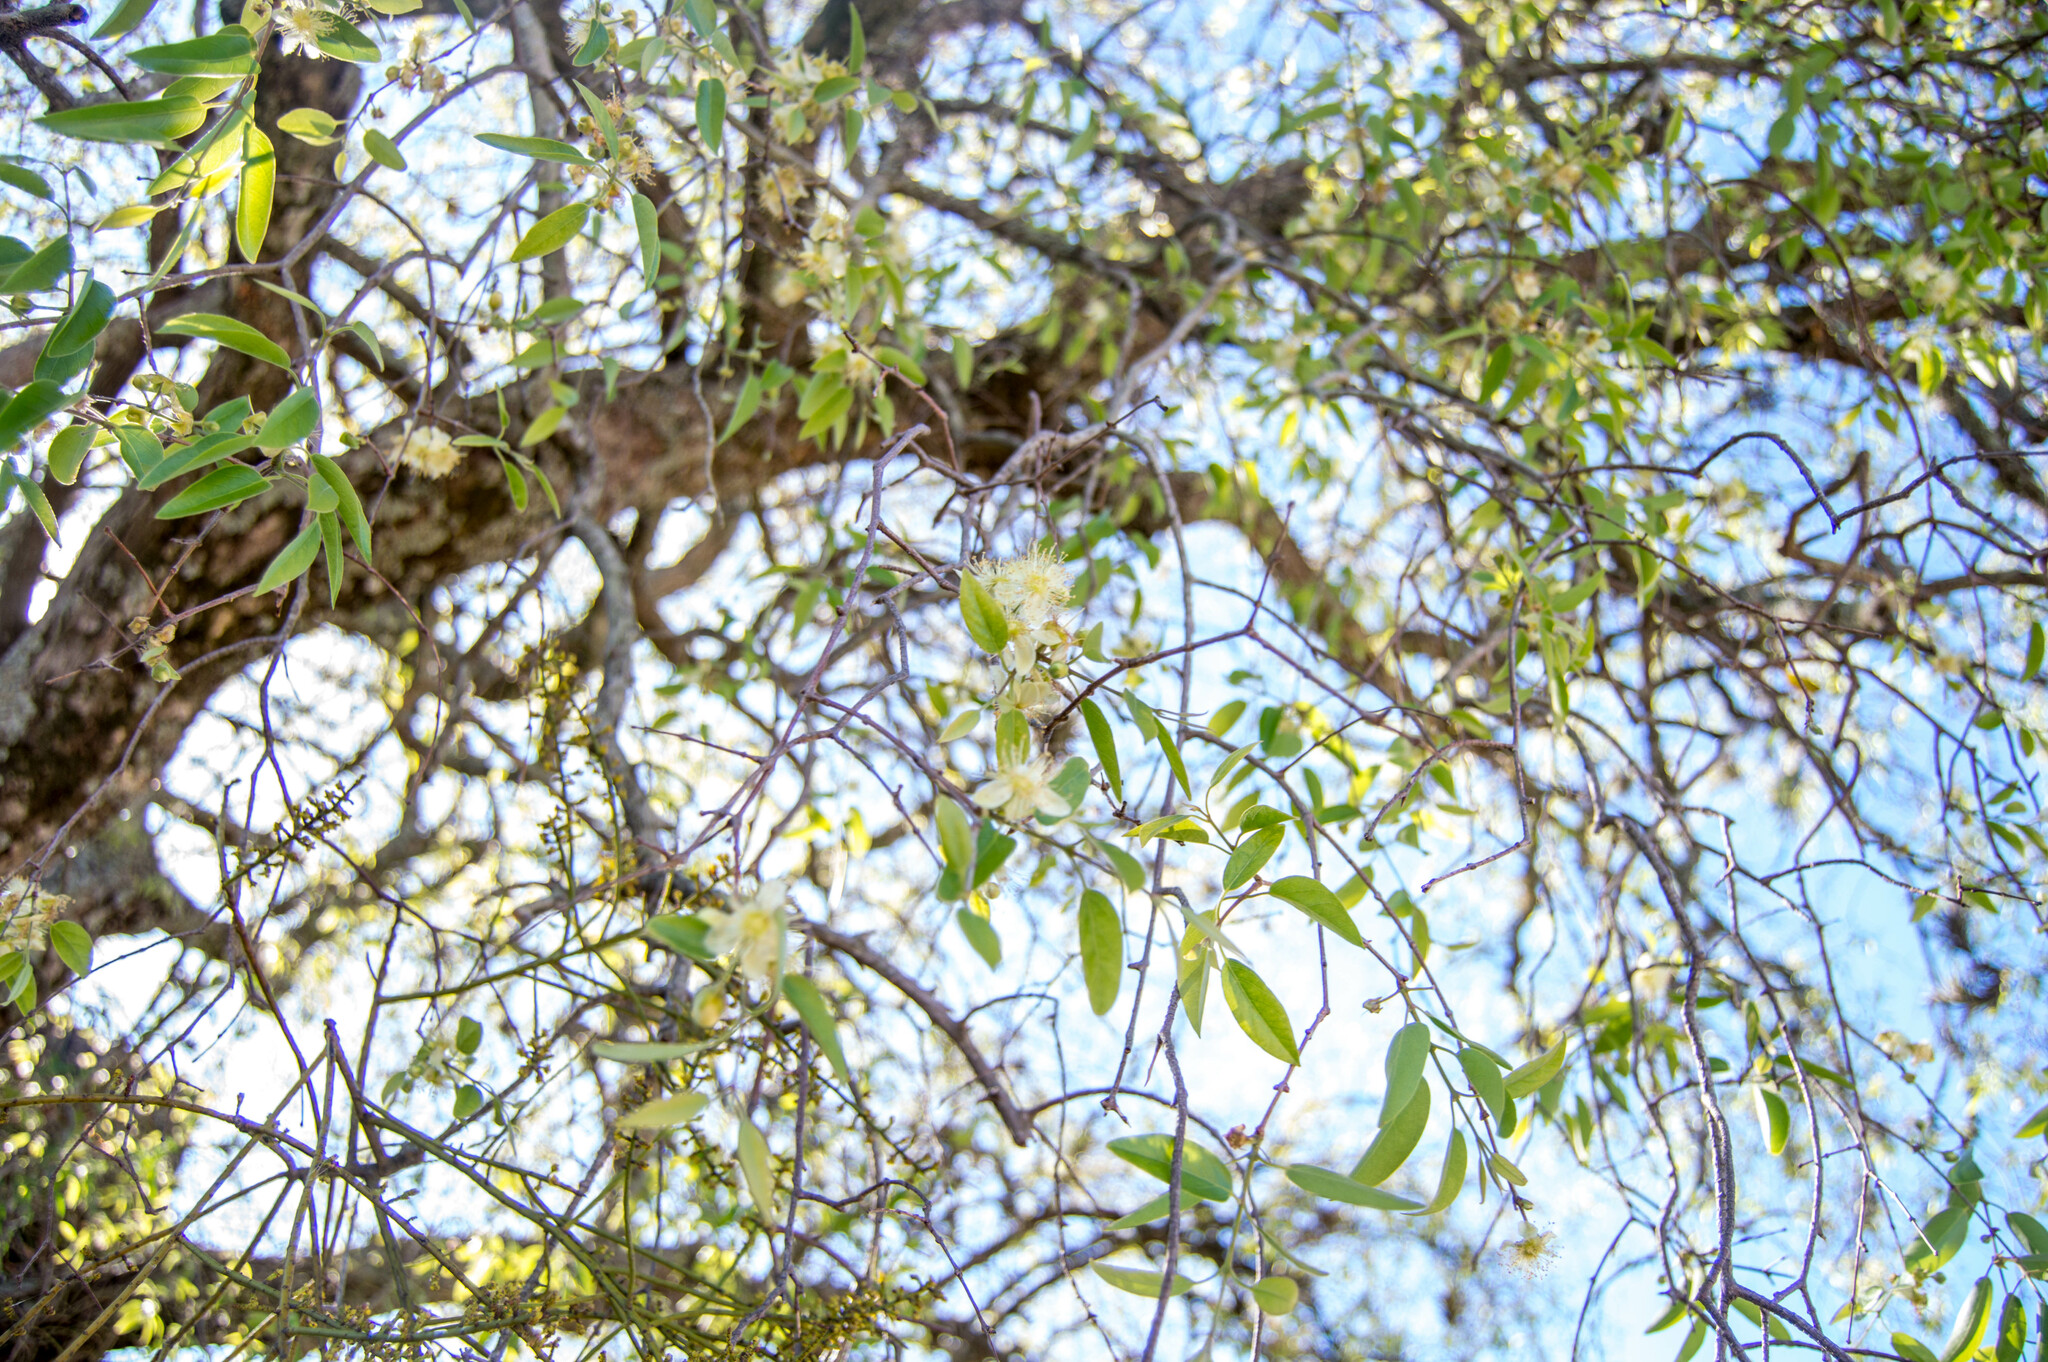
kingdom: Plantae
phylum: Tracheophyta
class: Magnoliopsida
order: Myrtales
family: Myrtaceae
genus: Eugenia
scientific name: Eugenia myrcianthes
